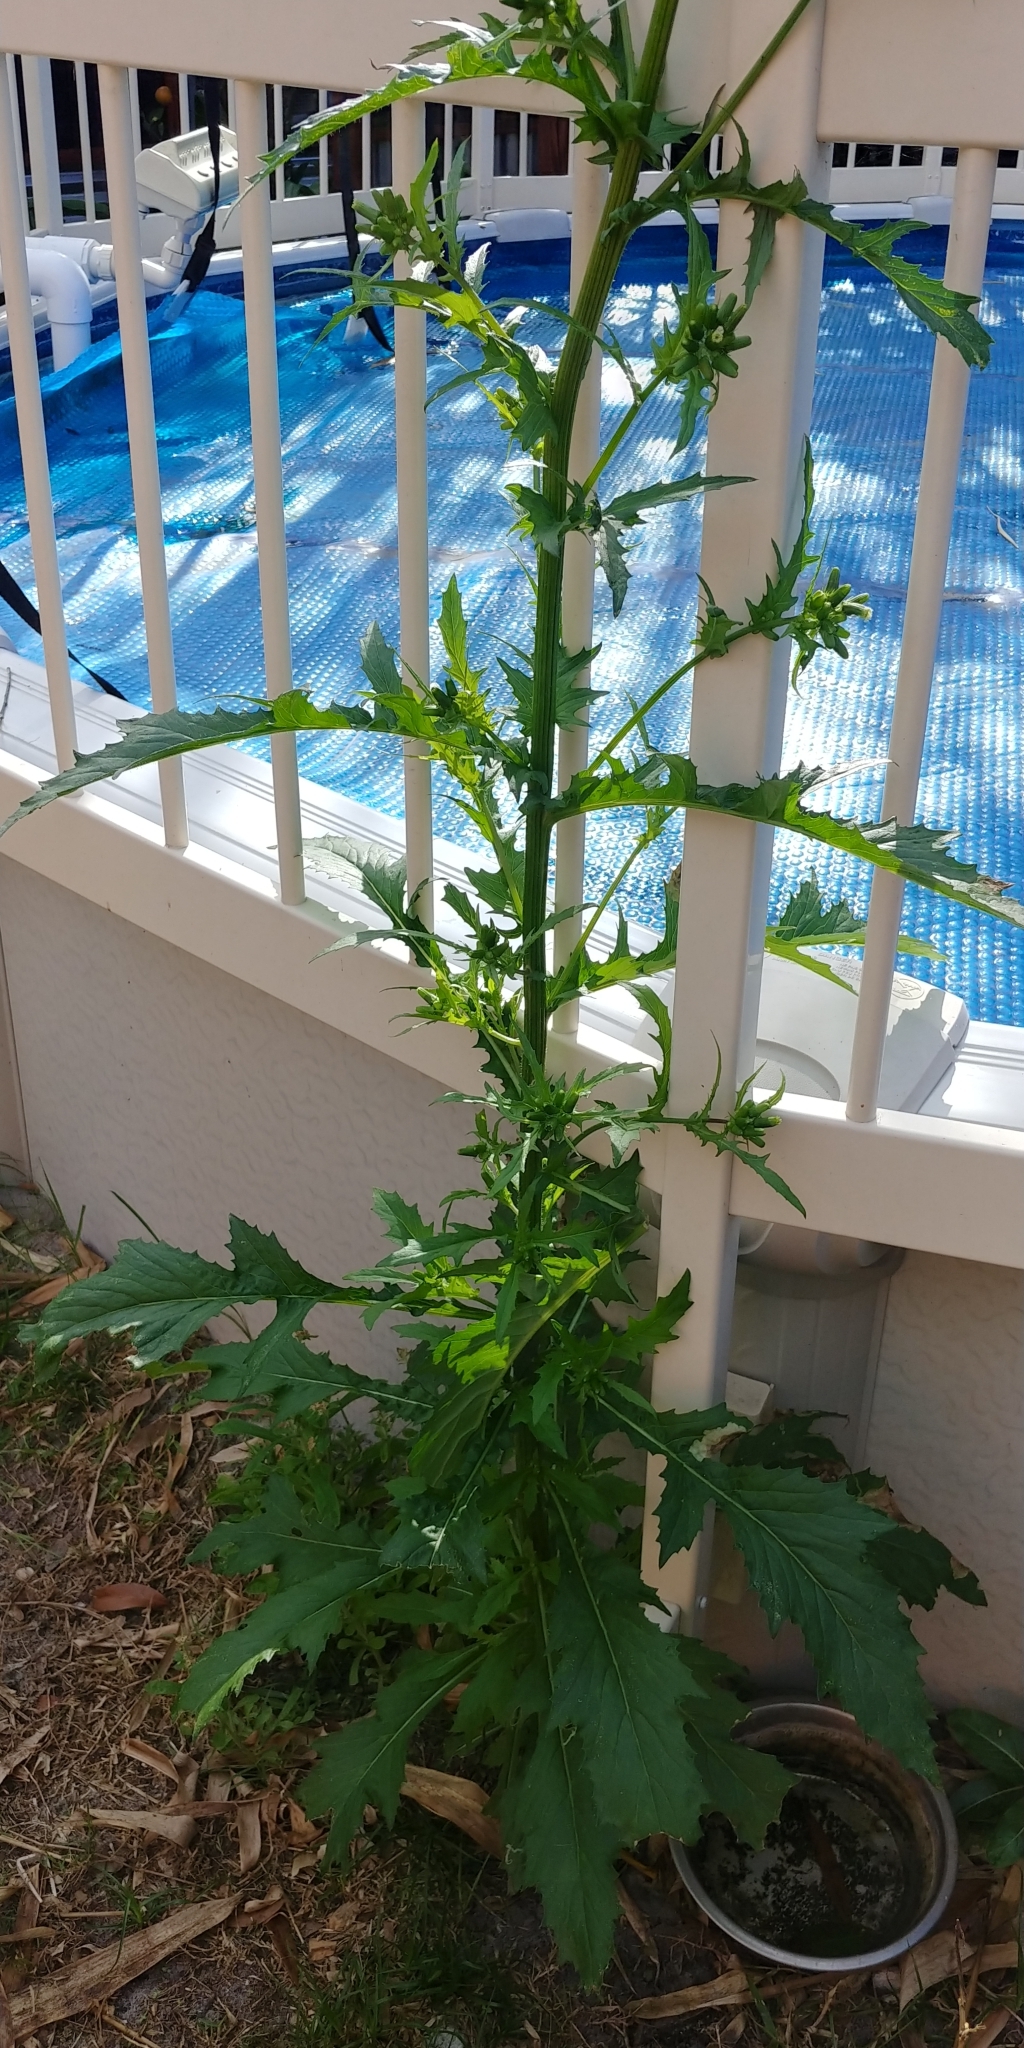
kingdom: Plantae
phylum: Tracheophyta
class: Magnoliopsida
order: Asterales
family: Asteraceae
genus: Erechtites
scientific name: Erechtites hieraciifolius
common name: American burnweed
